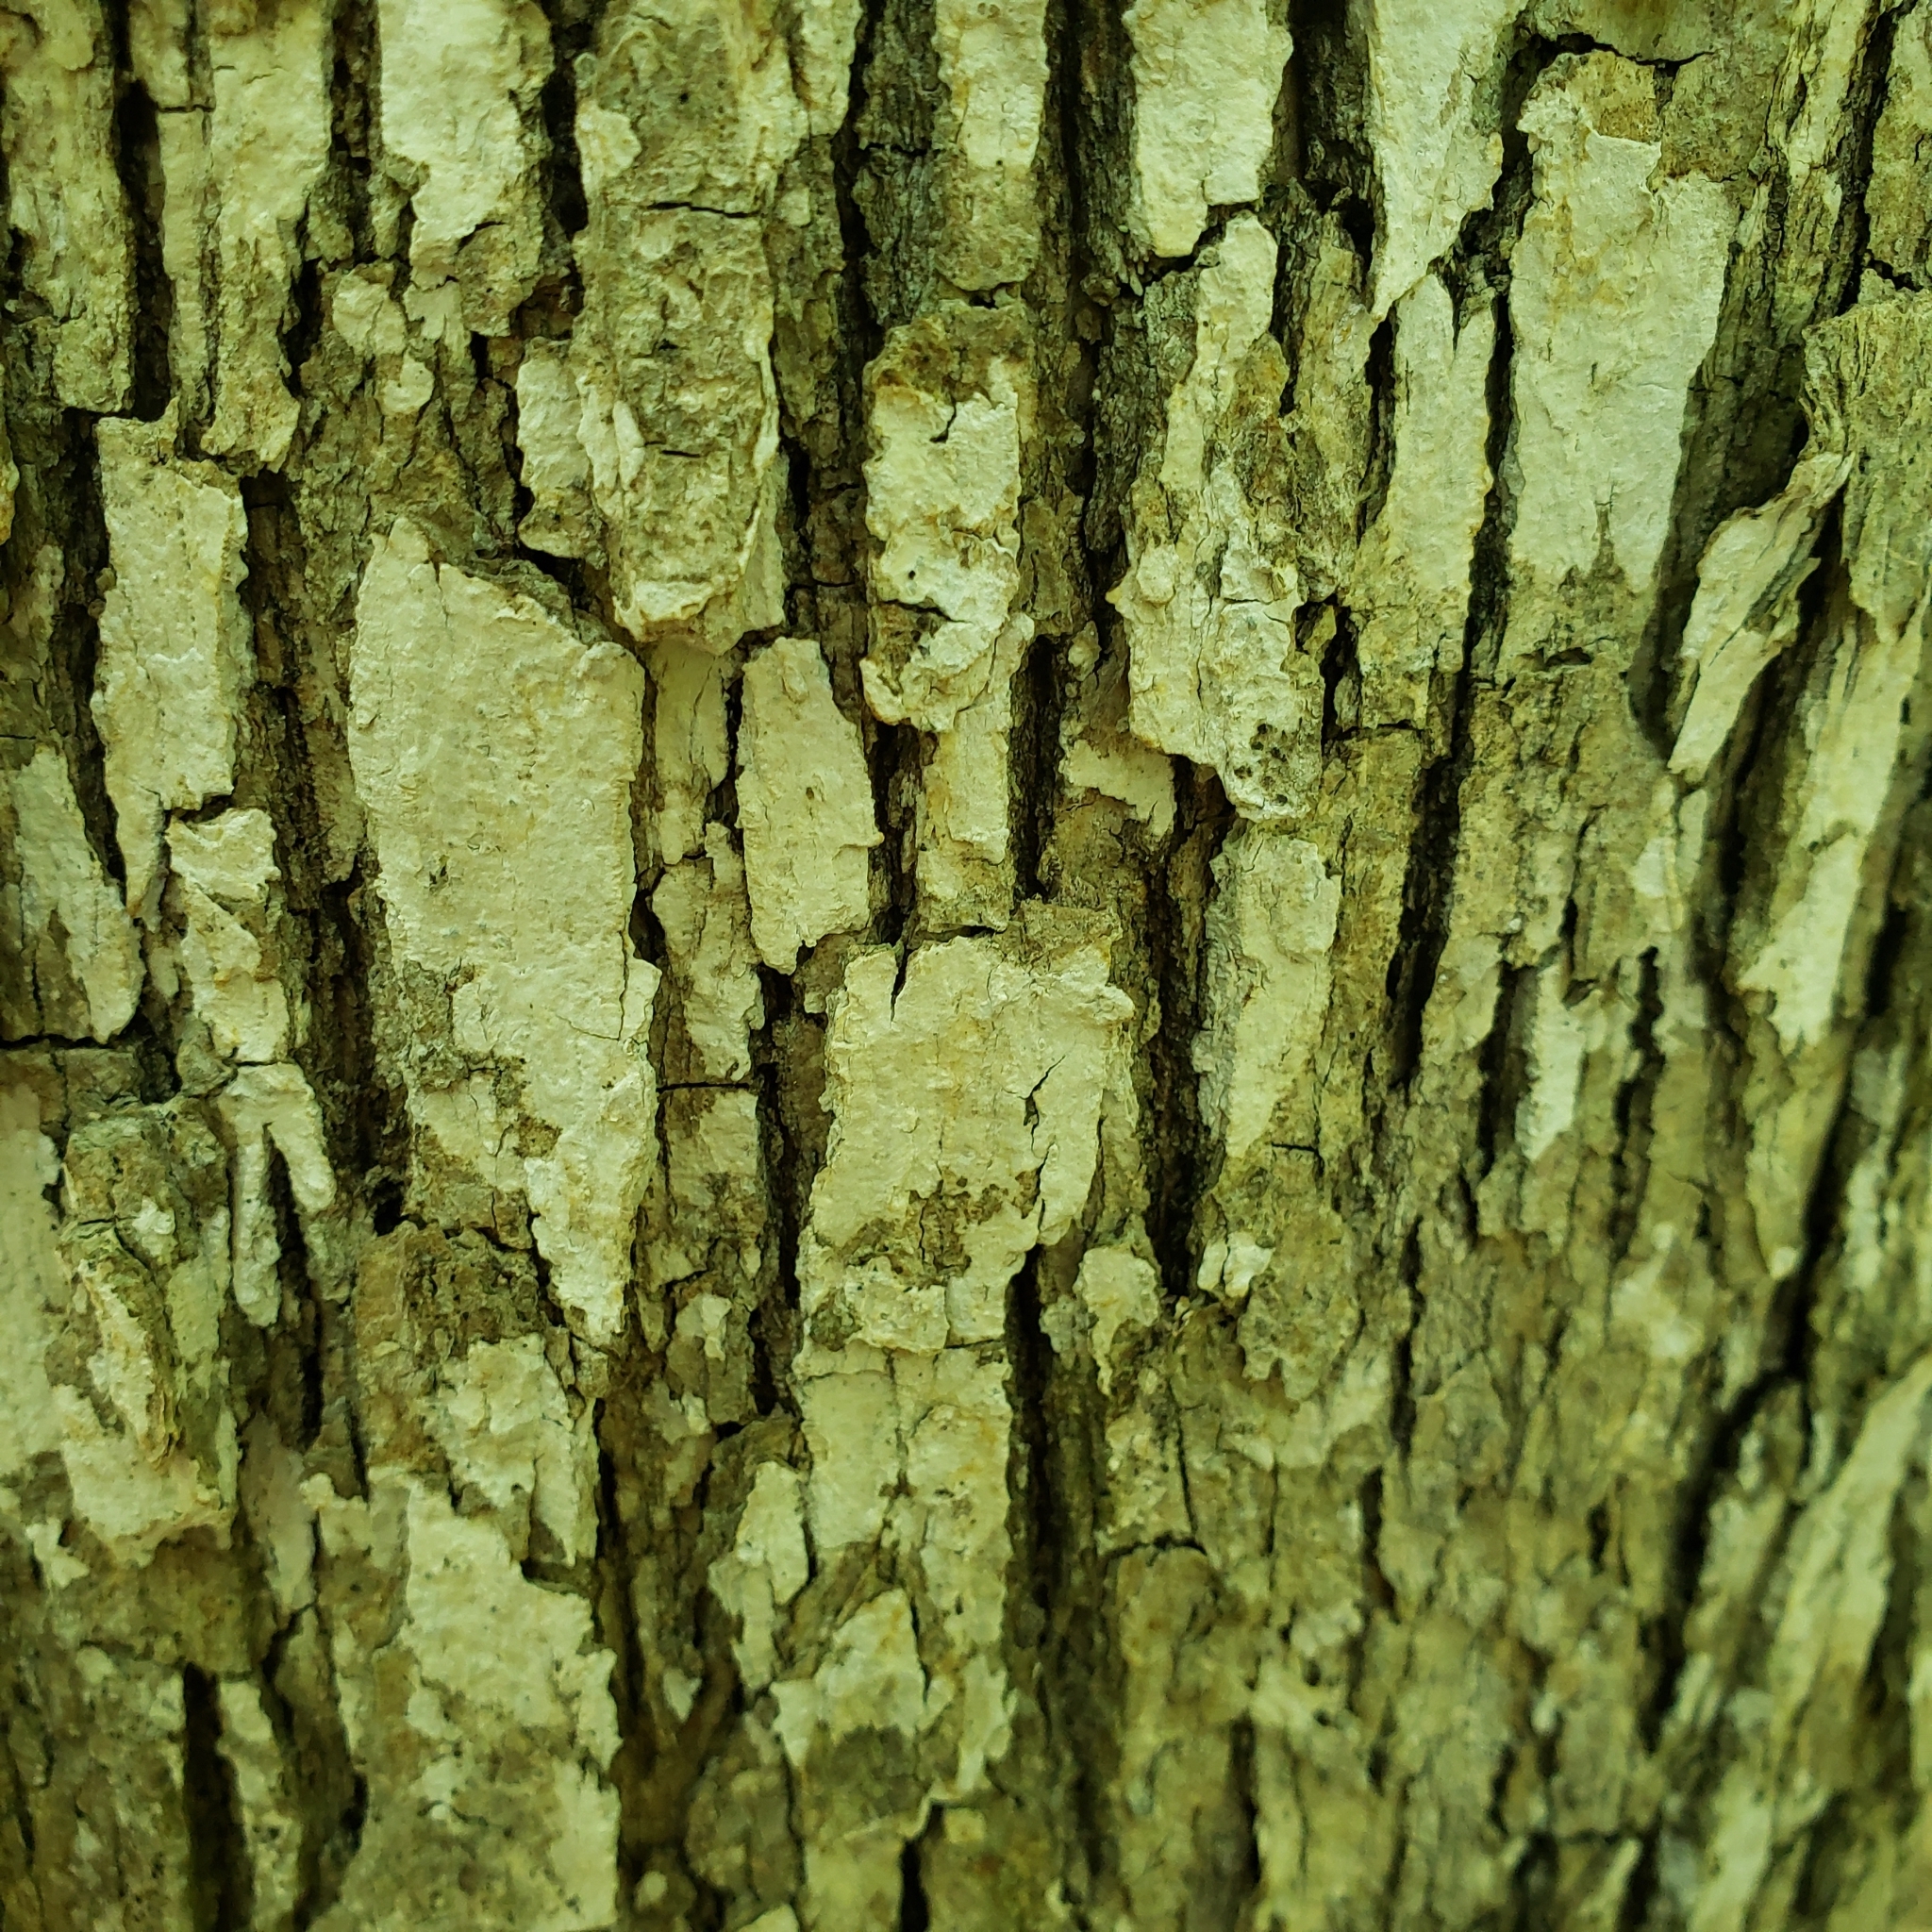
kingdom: Fungi
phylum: Basidiomycota
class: Agaricomycetes
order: Russulales
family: Stereaceae
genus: Acanthophysium
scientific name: Acanthophysium oakesii
